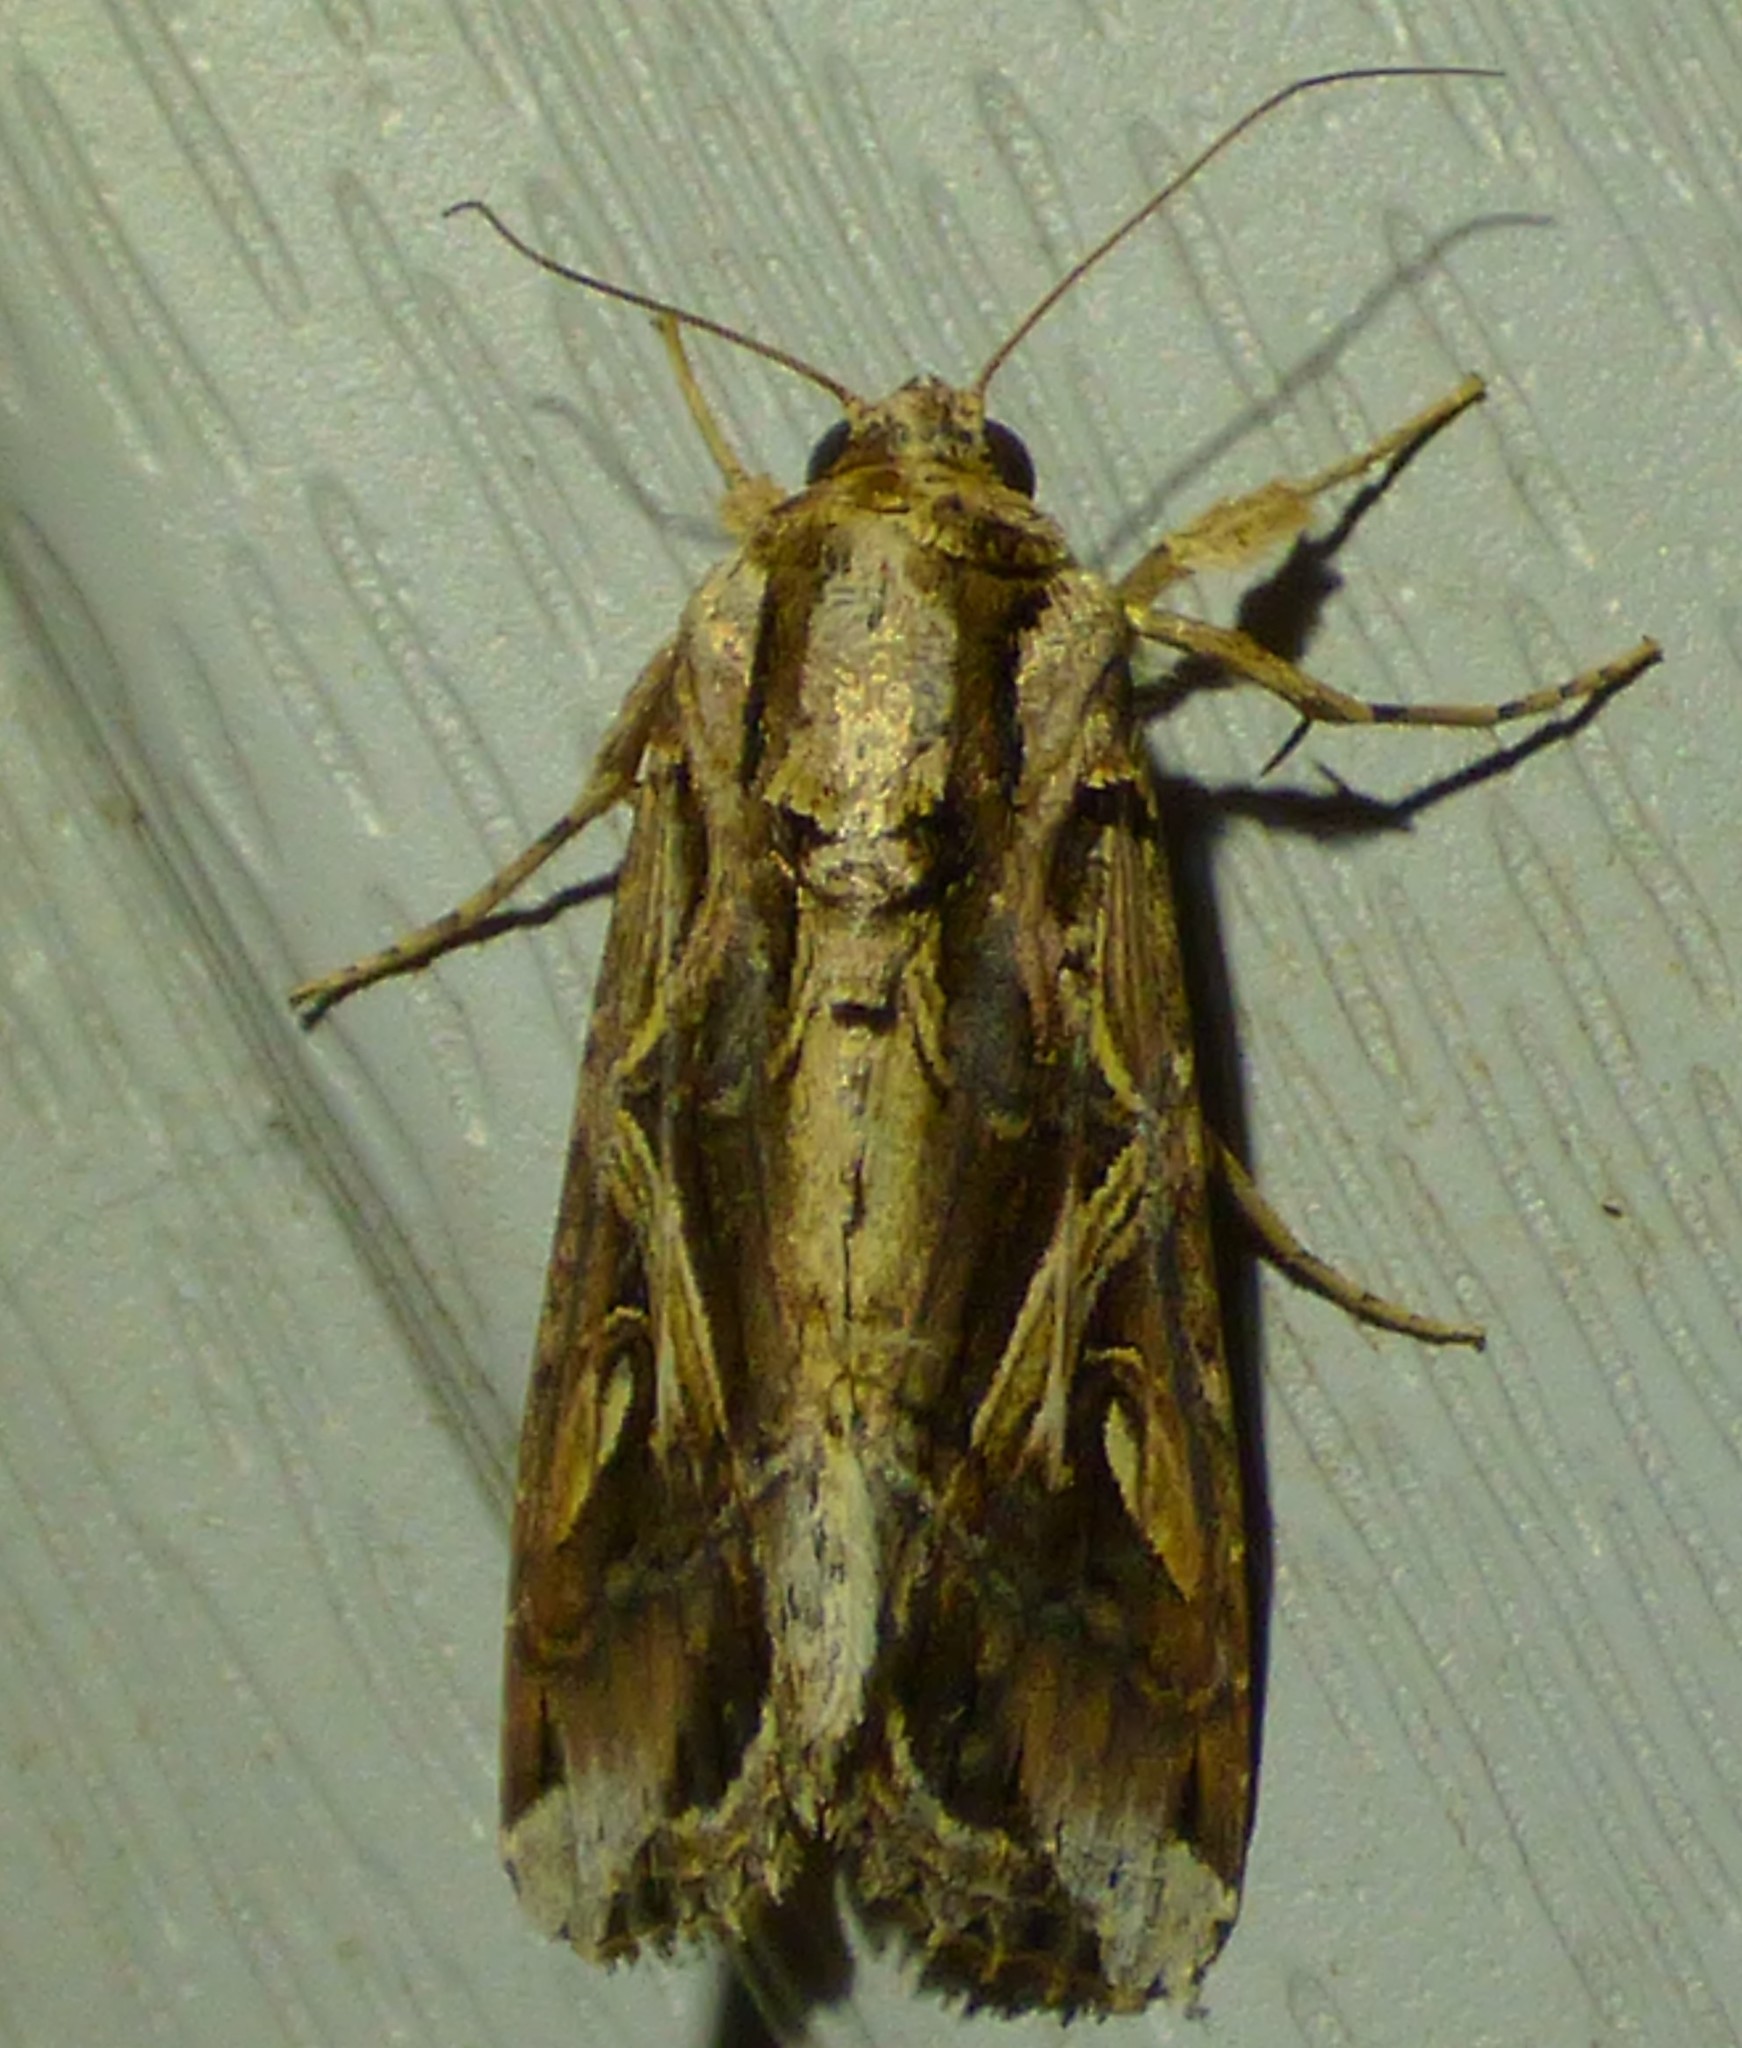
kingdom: Animalia
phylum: Arthropoda
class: Insecta
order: Lepidoptera
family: Noctuidae
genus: Spodoptera
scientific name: Spodoptera dolichos
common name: Sweetpotato armyworm
